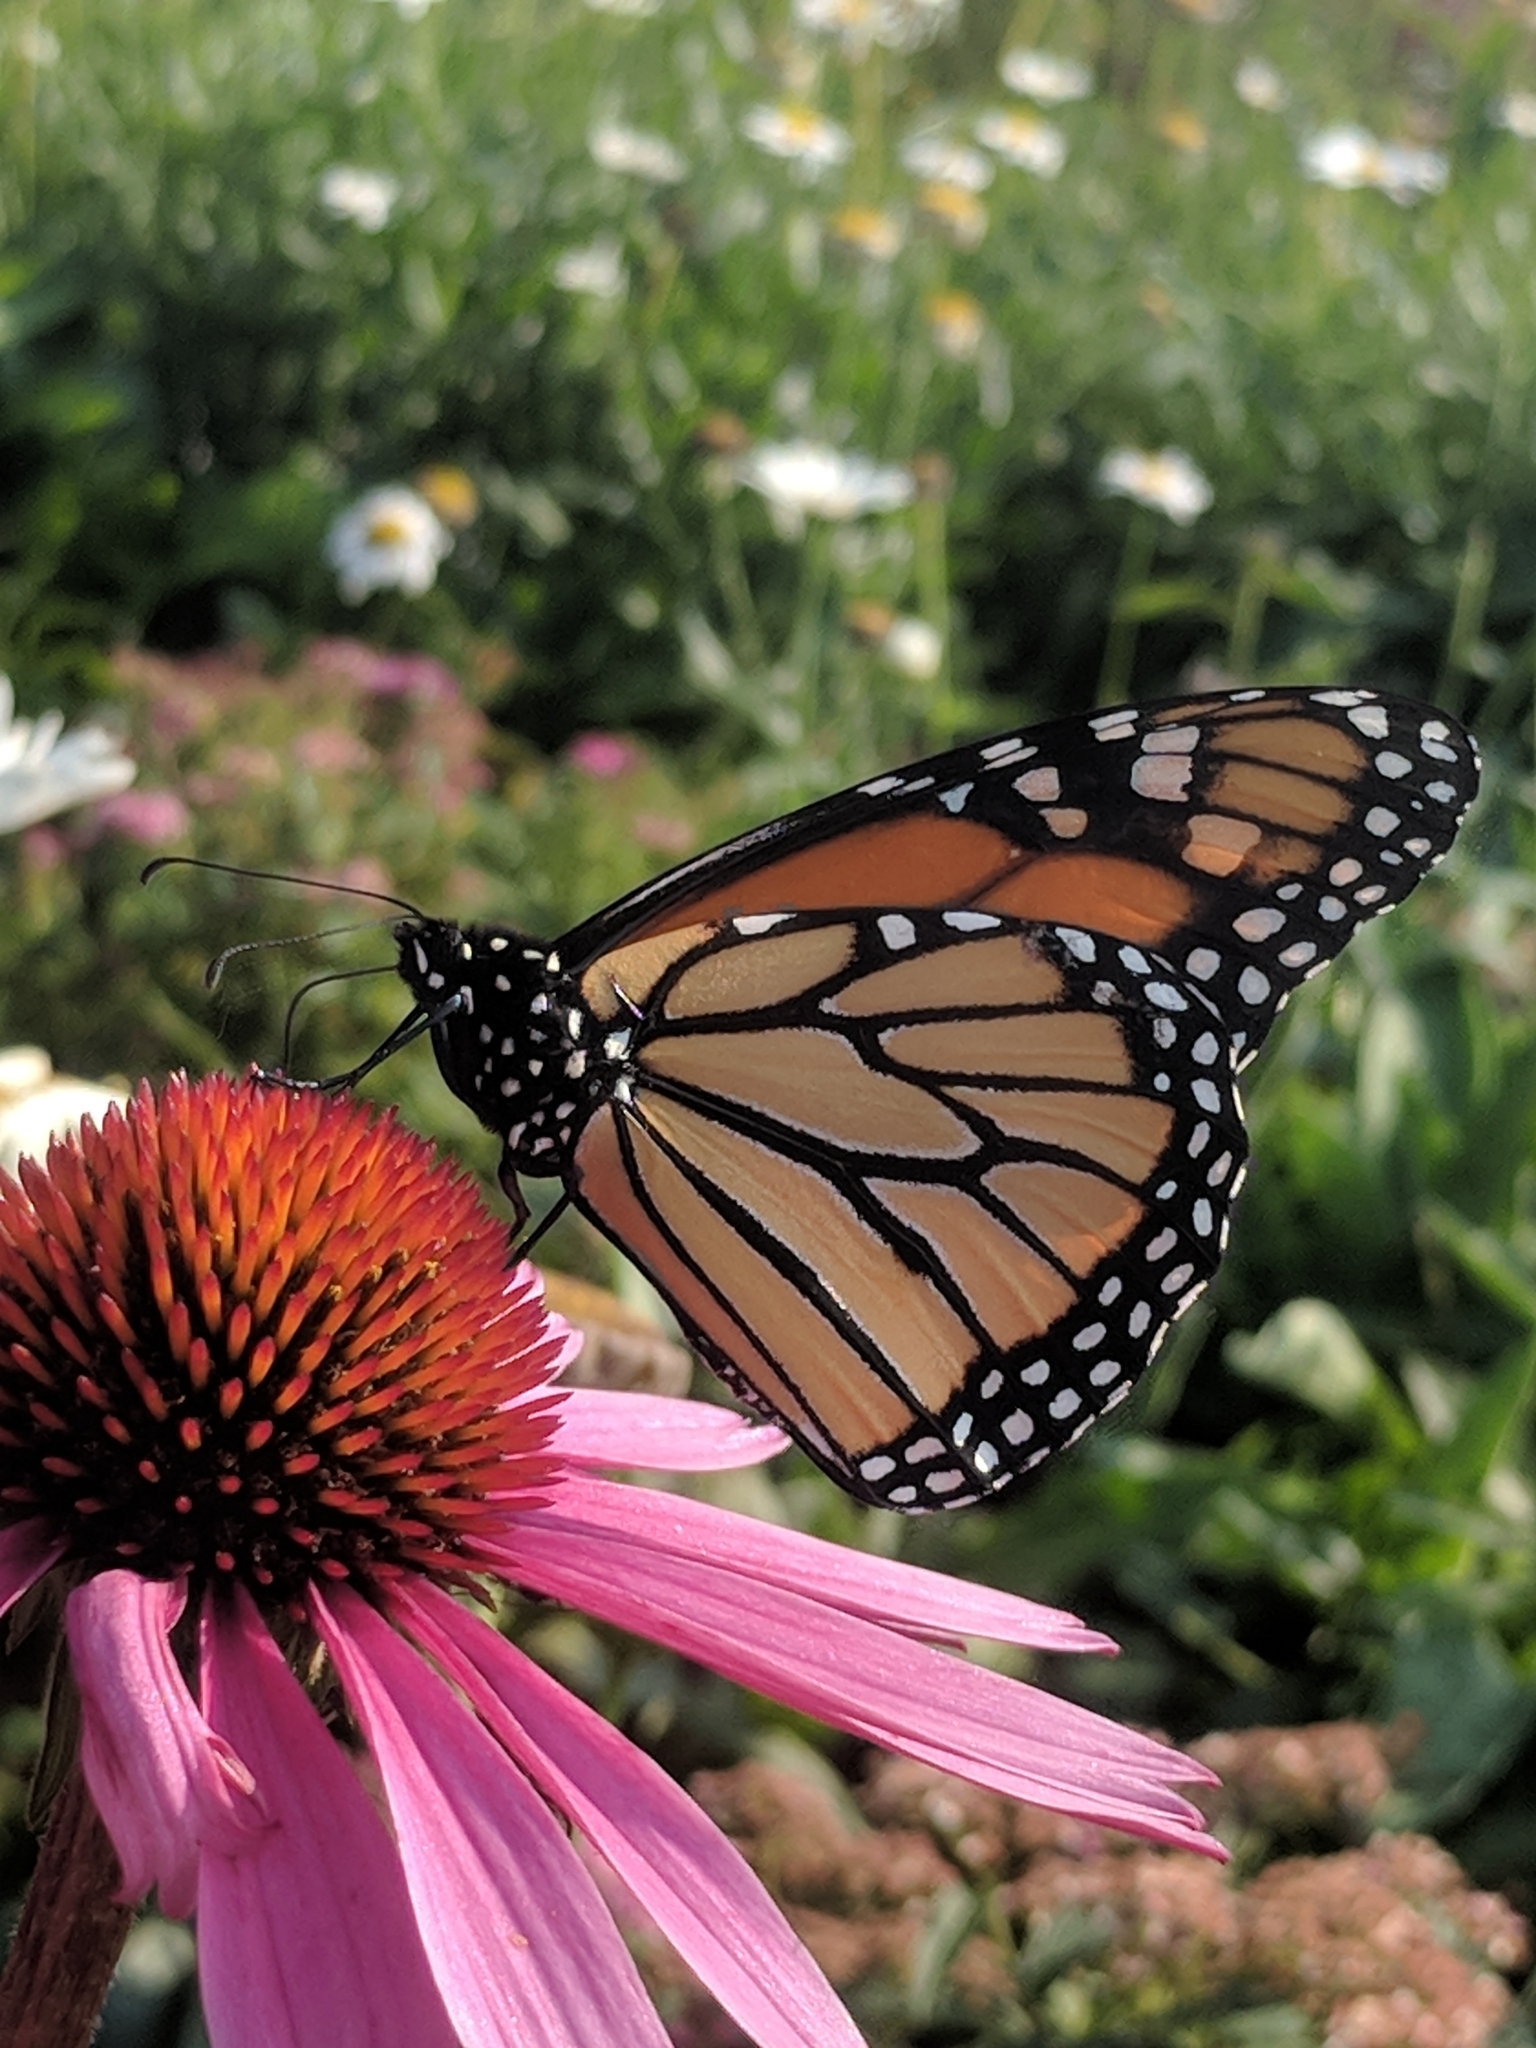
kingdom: Animalia
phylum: Arthropoda
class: Insecta
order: Lepidoptera
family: Nymphalidae
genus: Danaus
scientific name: Danaus plexippus
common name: Monarch
